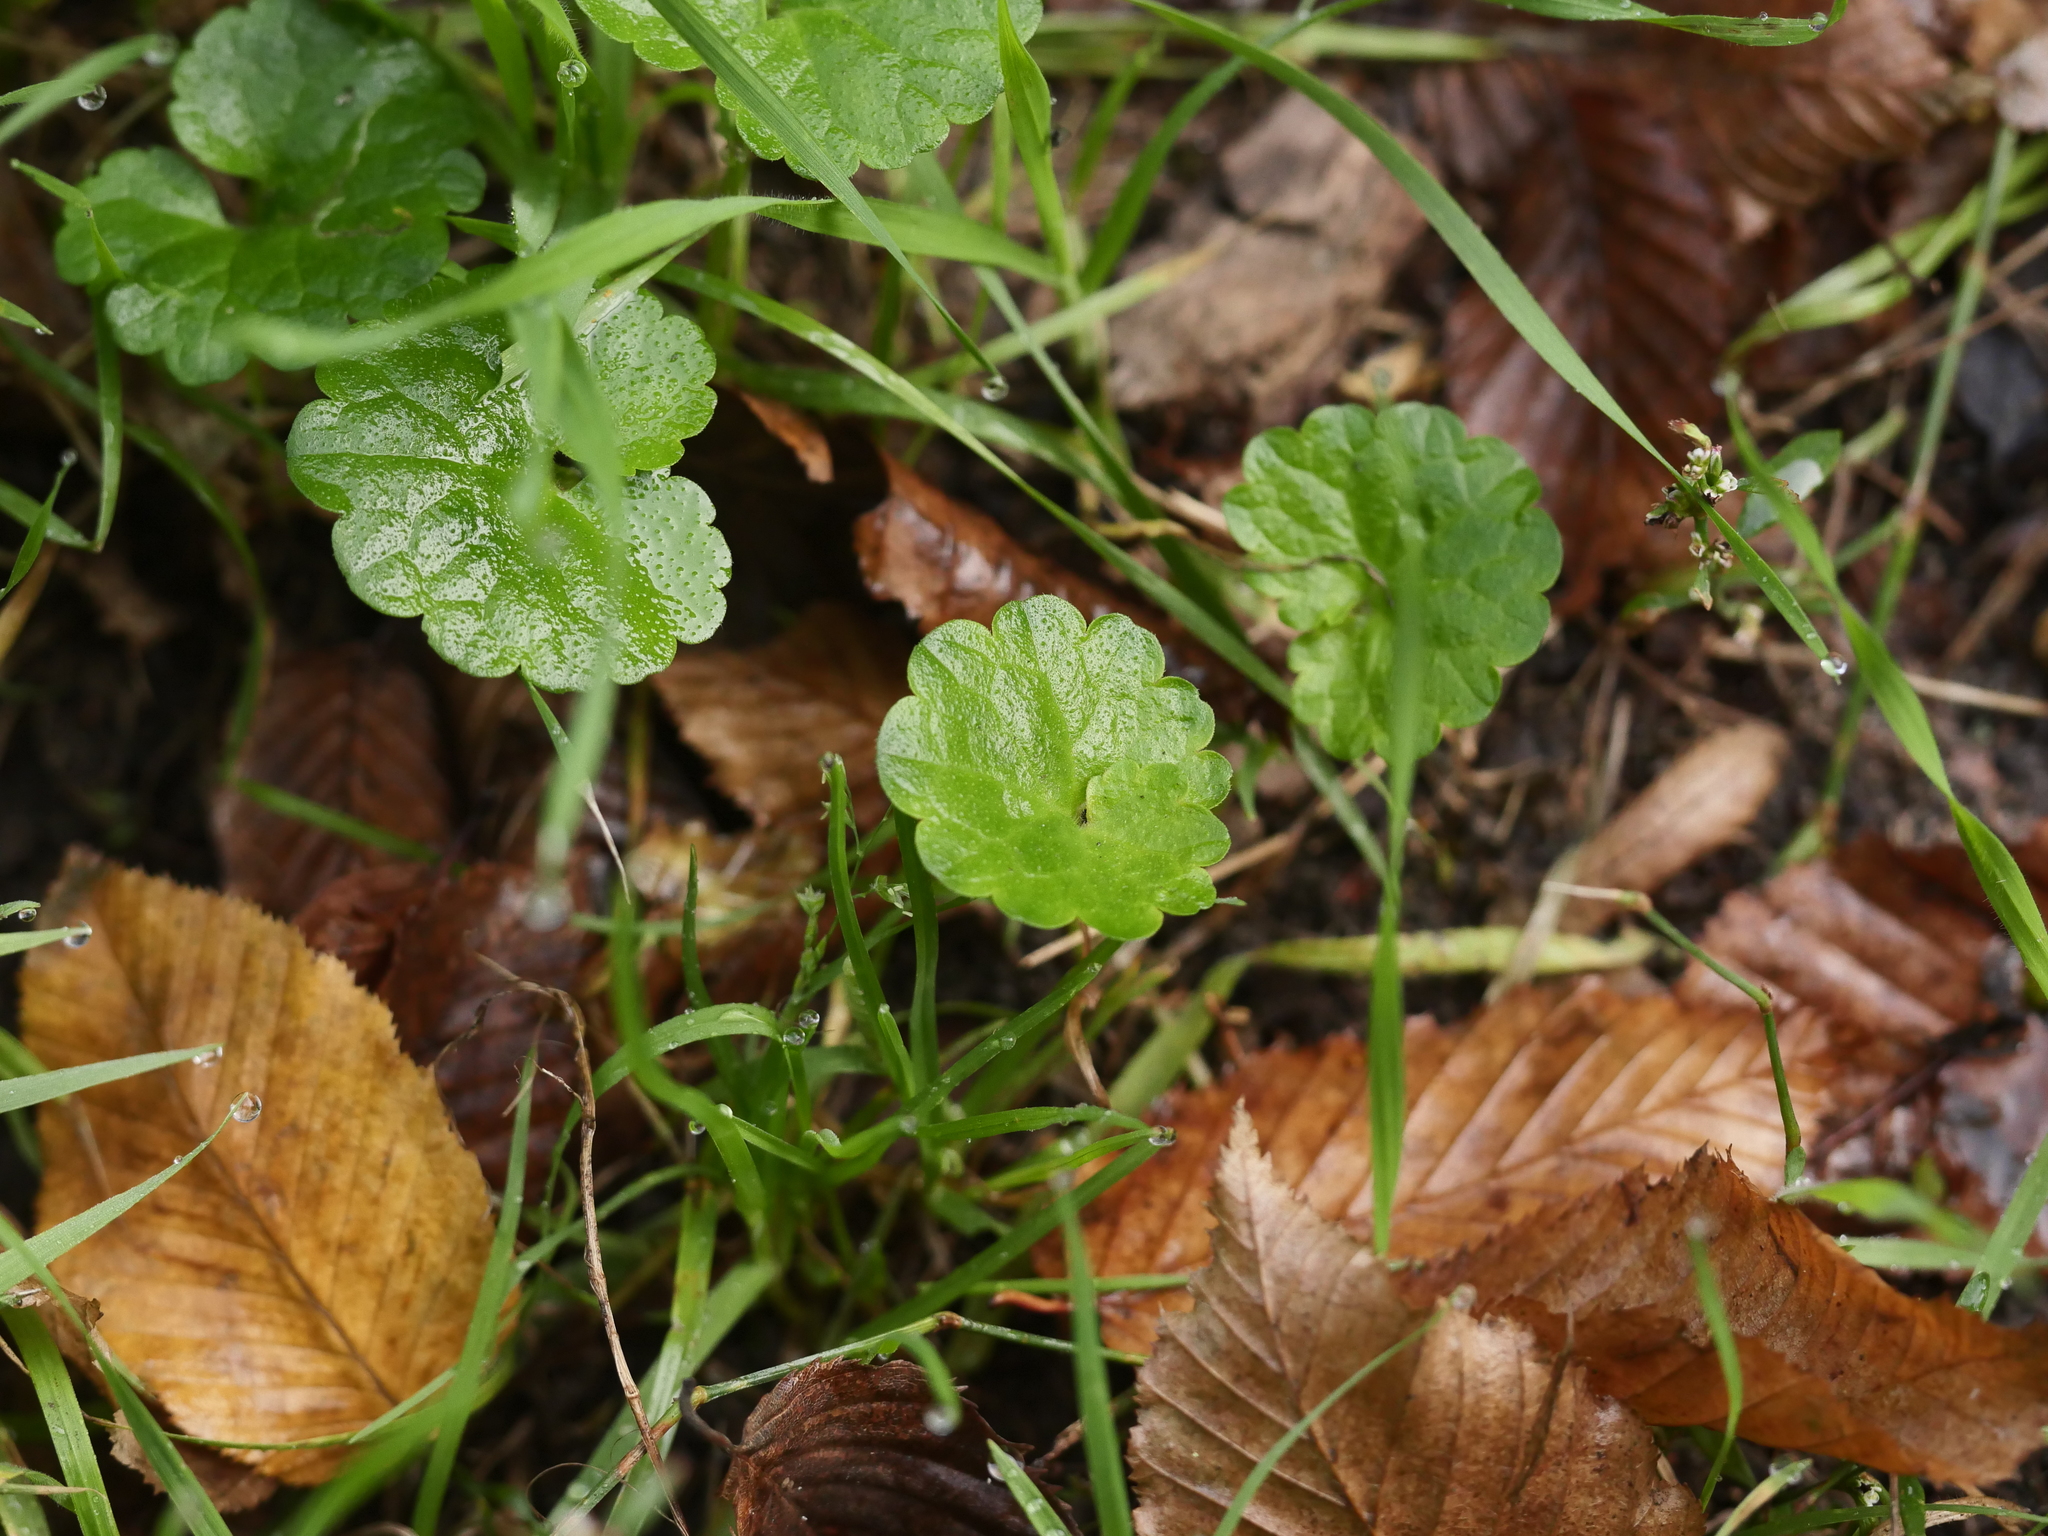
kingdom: Plantae
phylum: Tracheophyta
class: Magnoliopsida
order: Lamiales
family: Lamiaceae
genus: Glechoma
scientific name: Glechoma hederacea
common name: Ground ivy
